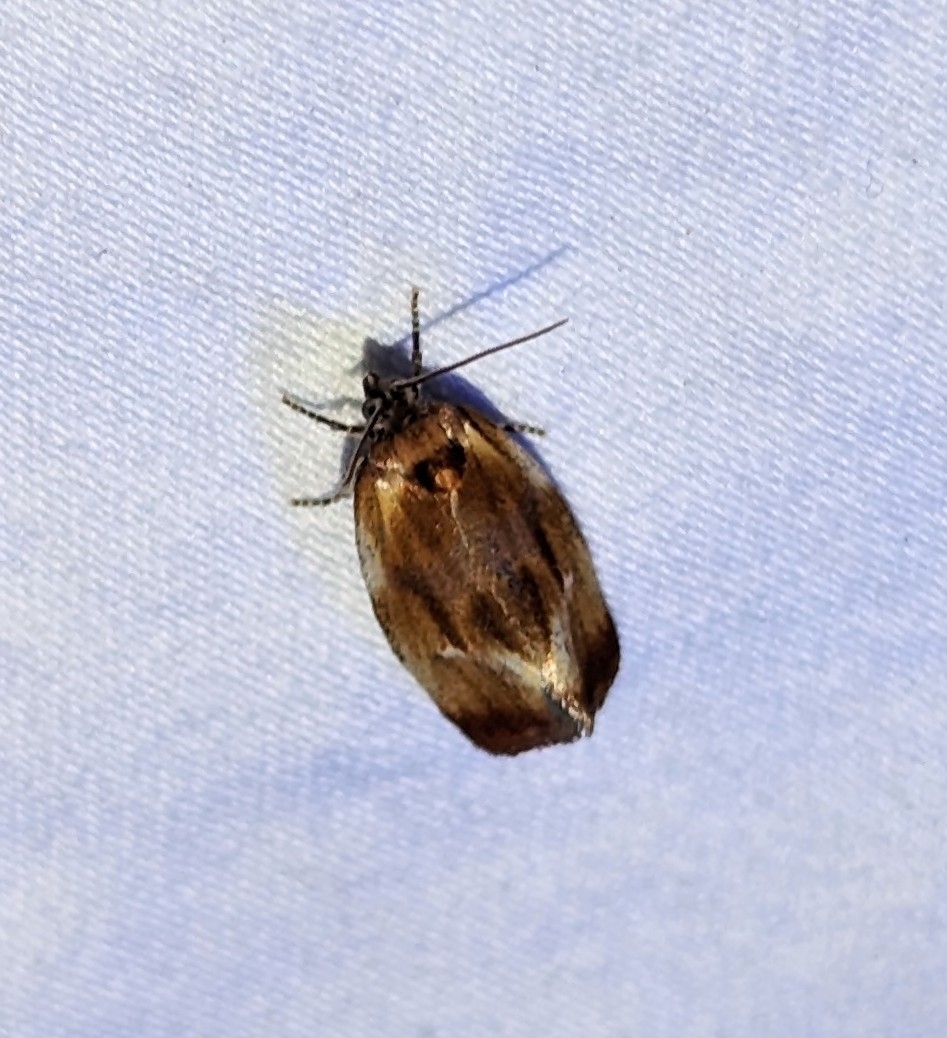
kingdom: Animalia
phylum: Arthropoda
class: Insecta
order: Lepidoptera
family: Tortricidae
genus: Eulia
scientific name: Eulia ministrana
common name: Brassy twist
